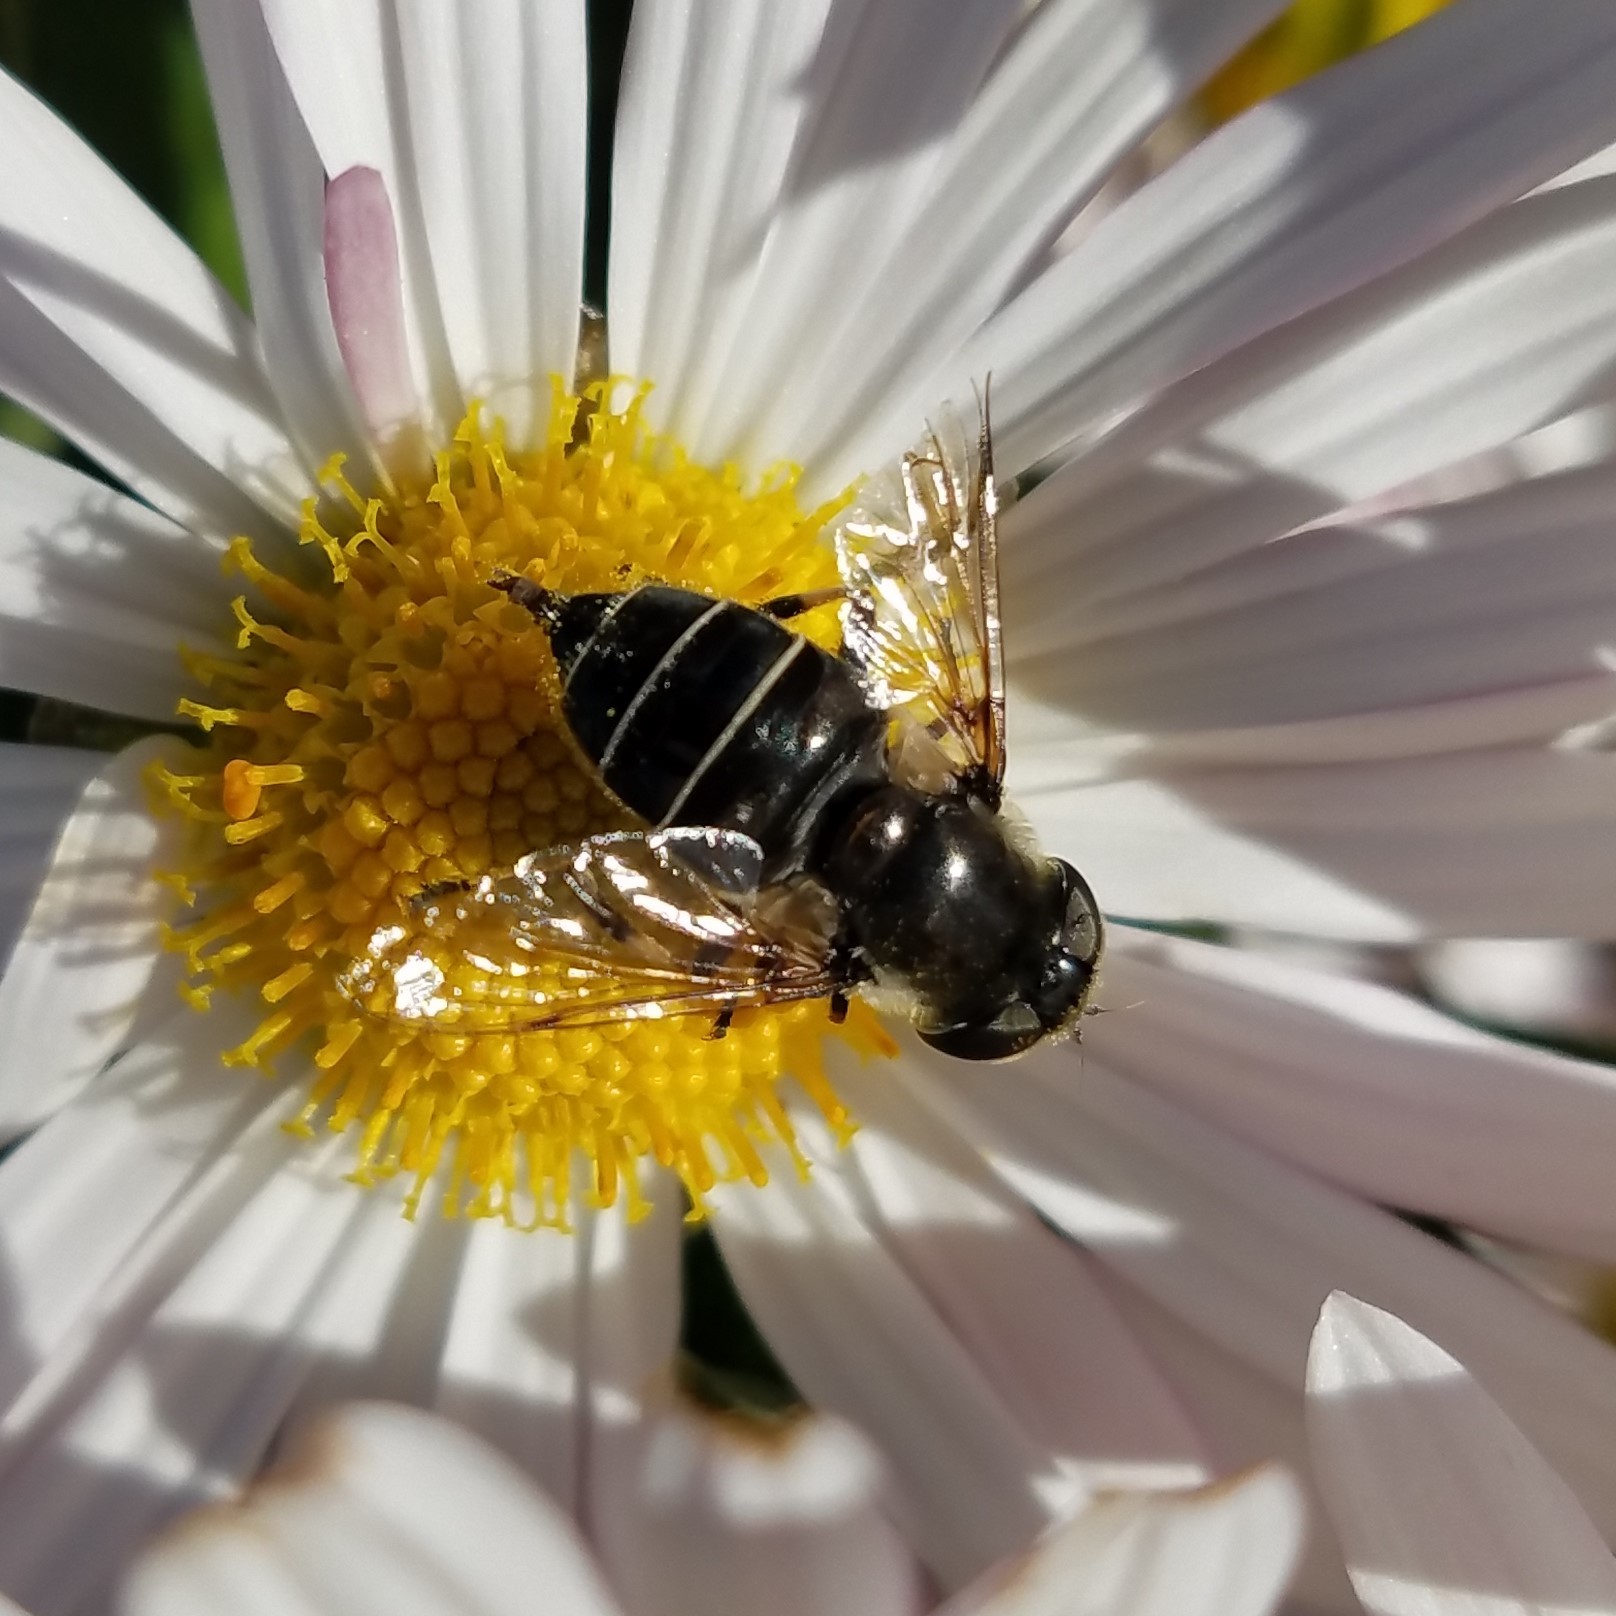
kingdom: Animalia
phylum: Arthropoda
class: Insecta
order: Diptera
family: Syrphidae
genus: Eristalis
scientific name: Eristalis dimidiata
